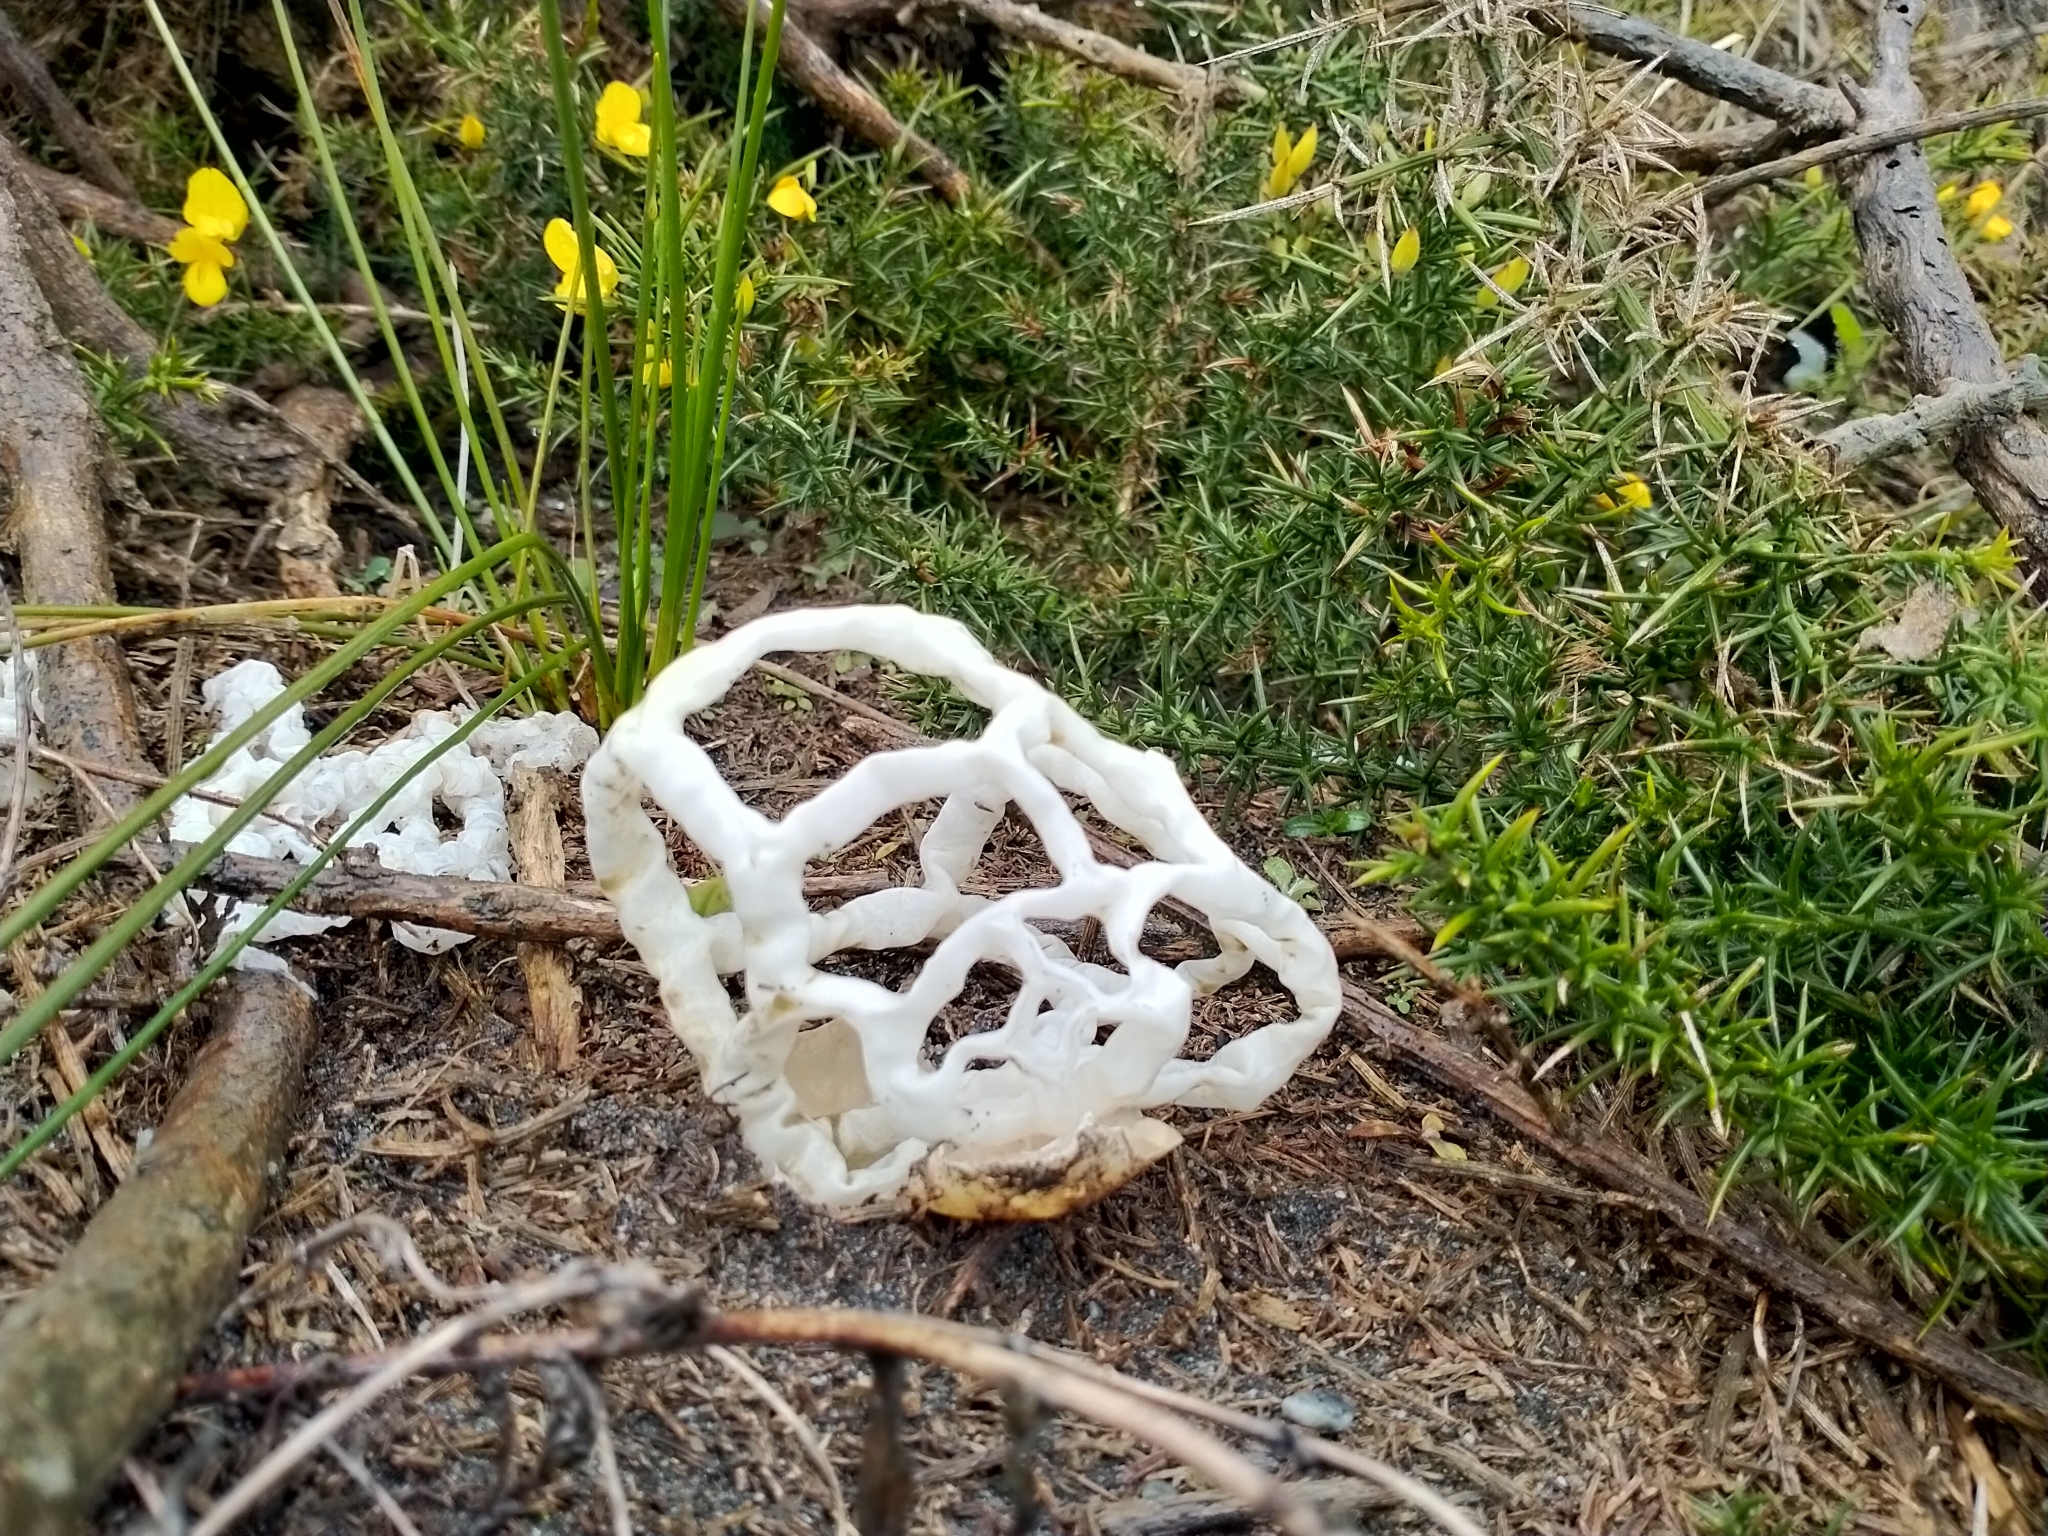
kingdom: Fungi
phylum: Basidiomycota
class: Agaricomycetes
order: Phallales
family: Phallaceae
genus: Ileodictyon
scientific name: Ileodictyon cibarium
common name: Basket fungus
